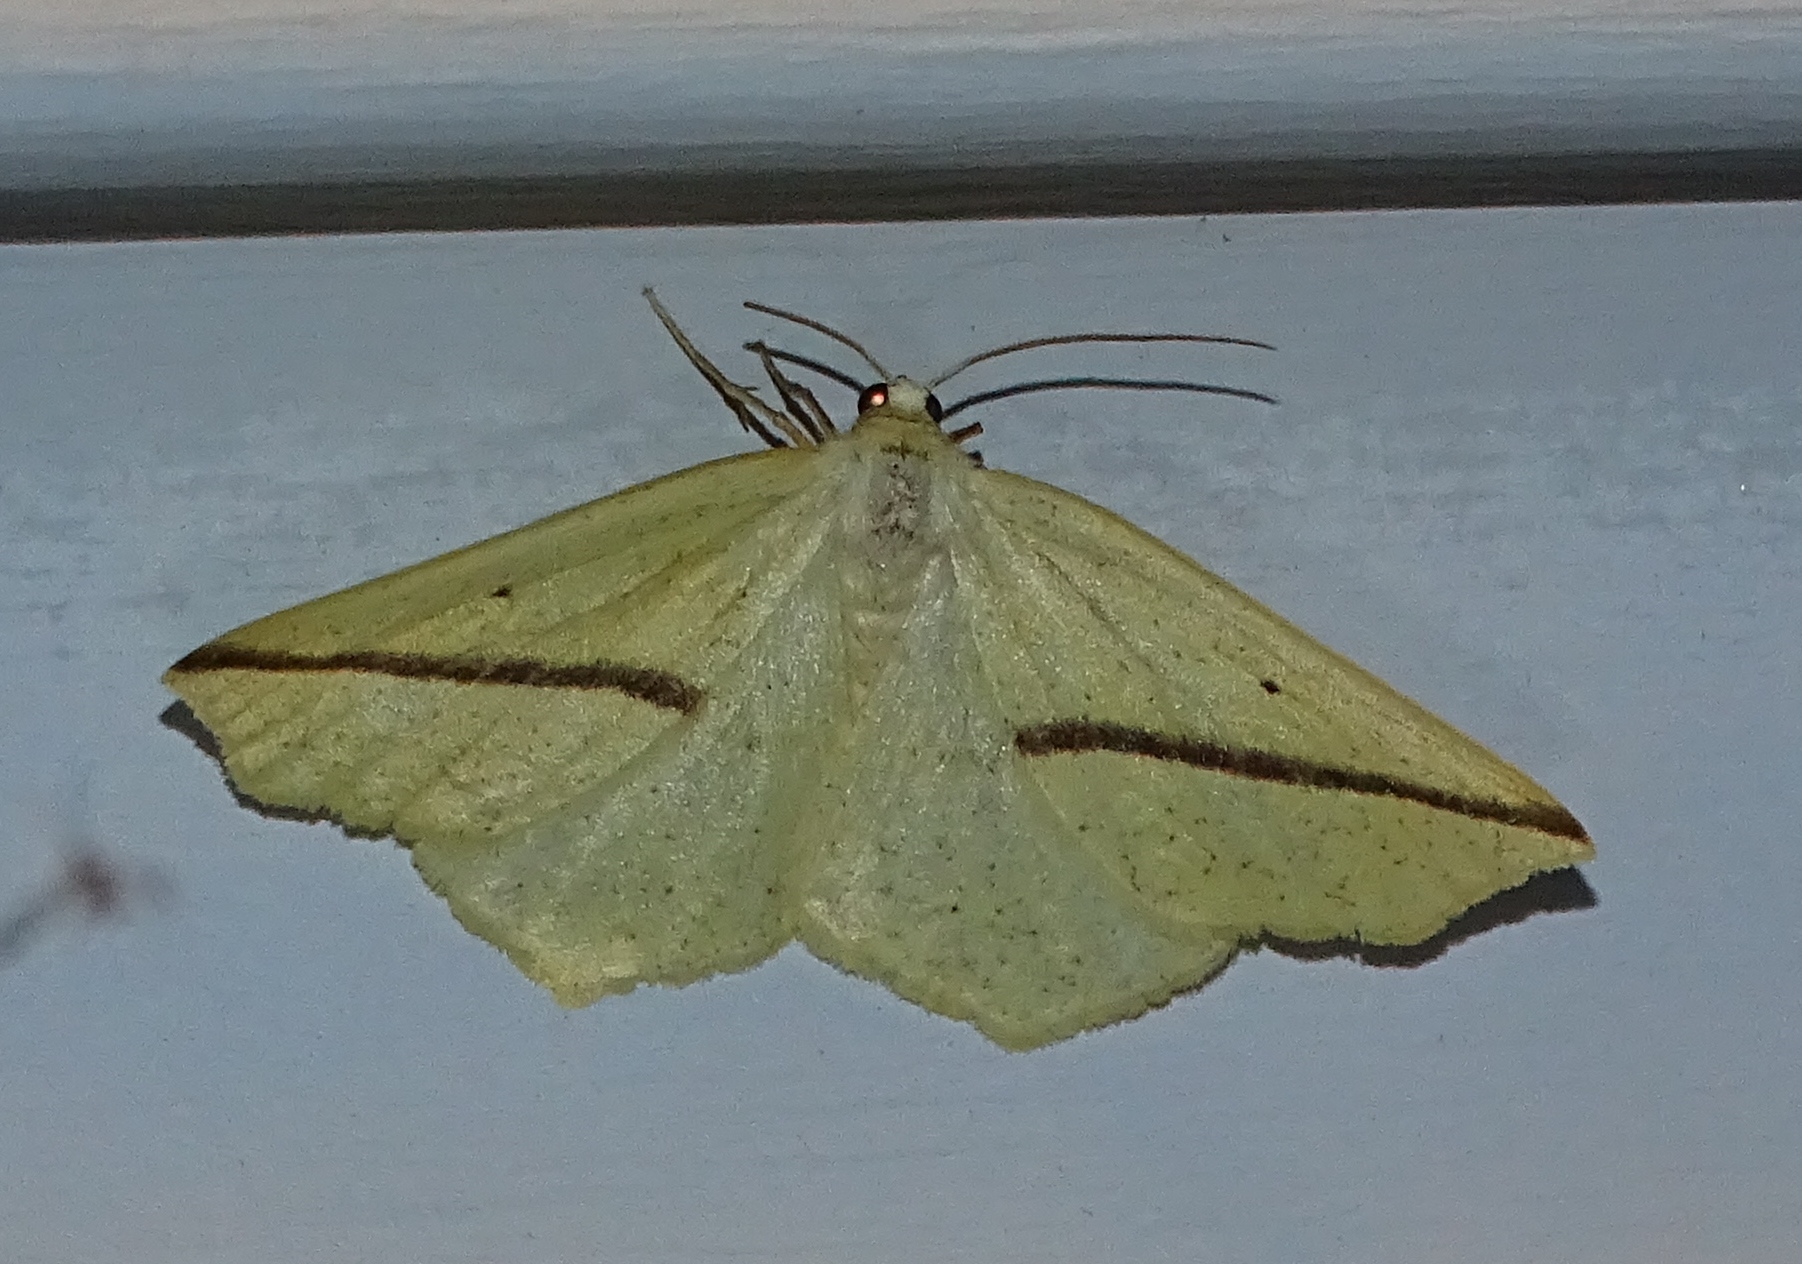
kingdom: Animalia
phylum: Arthropoda
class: Insecta
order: Lepidoptera
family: Geometridae
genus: Tetracis
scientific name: Tetracis crocallata
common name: Yellow slant-line
